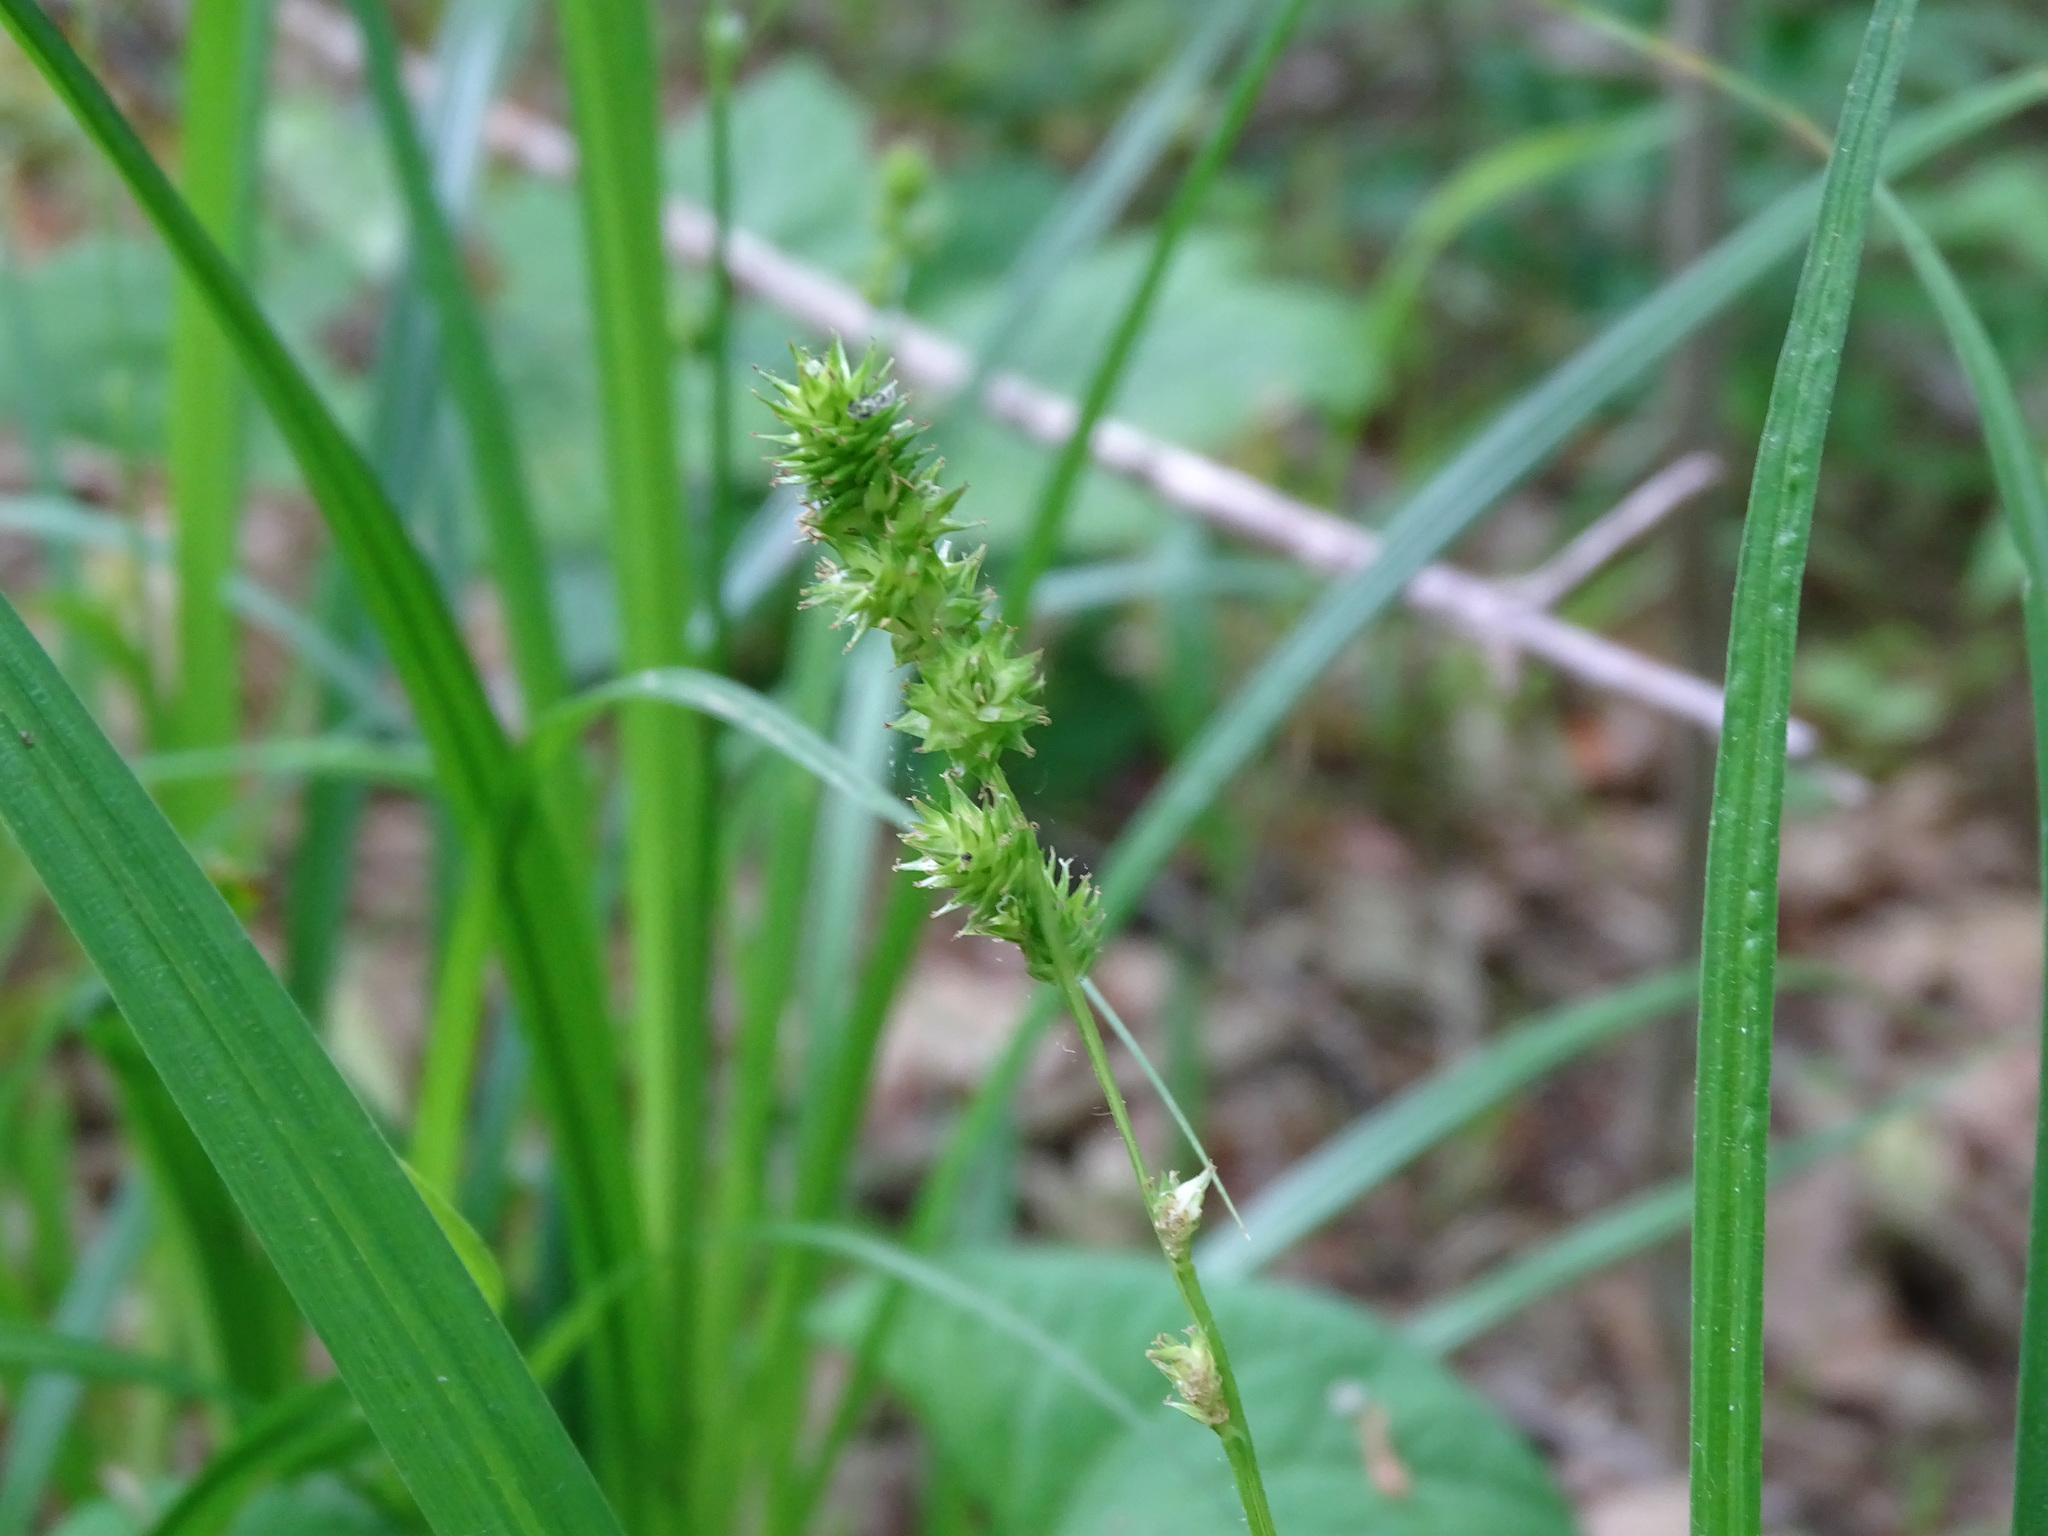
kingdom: Plantae
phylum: Tracheophyta
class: Liliopsida
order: Poales
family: Cyperaceae
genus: Carex
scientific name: Carex sparganioides
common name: Burreed sedge
